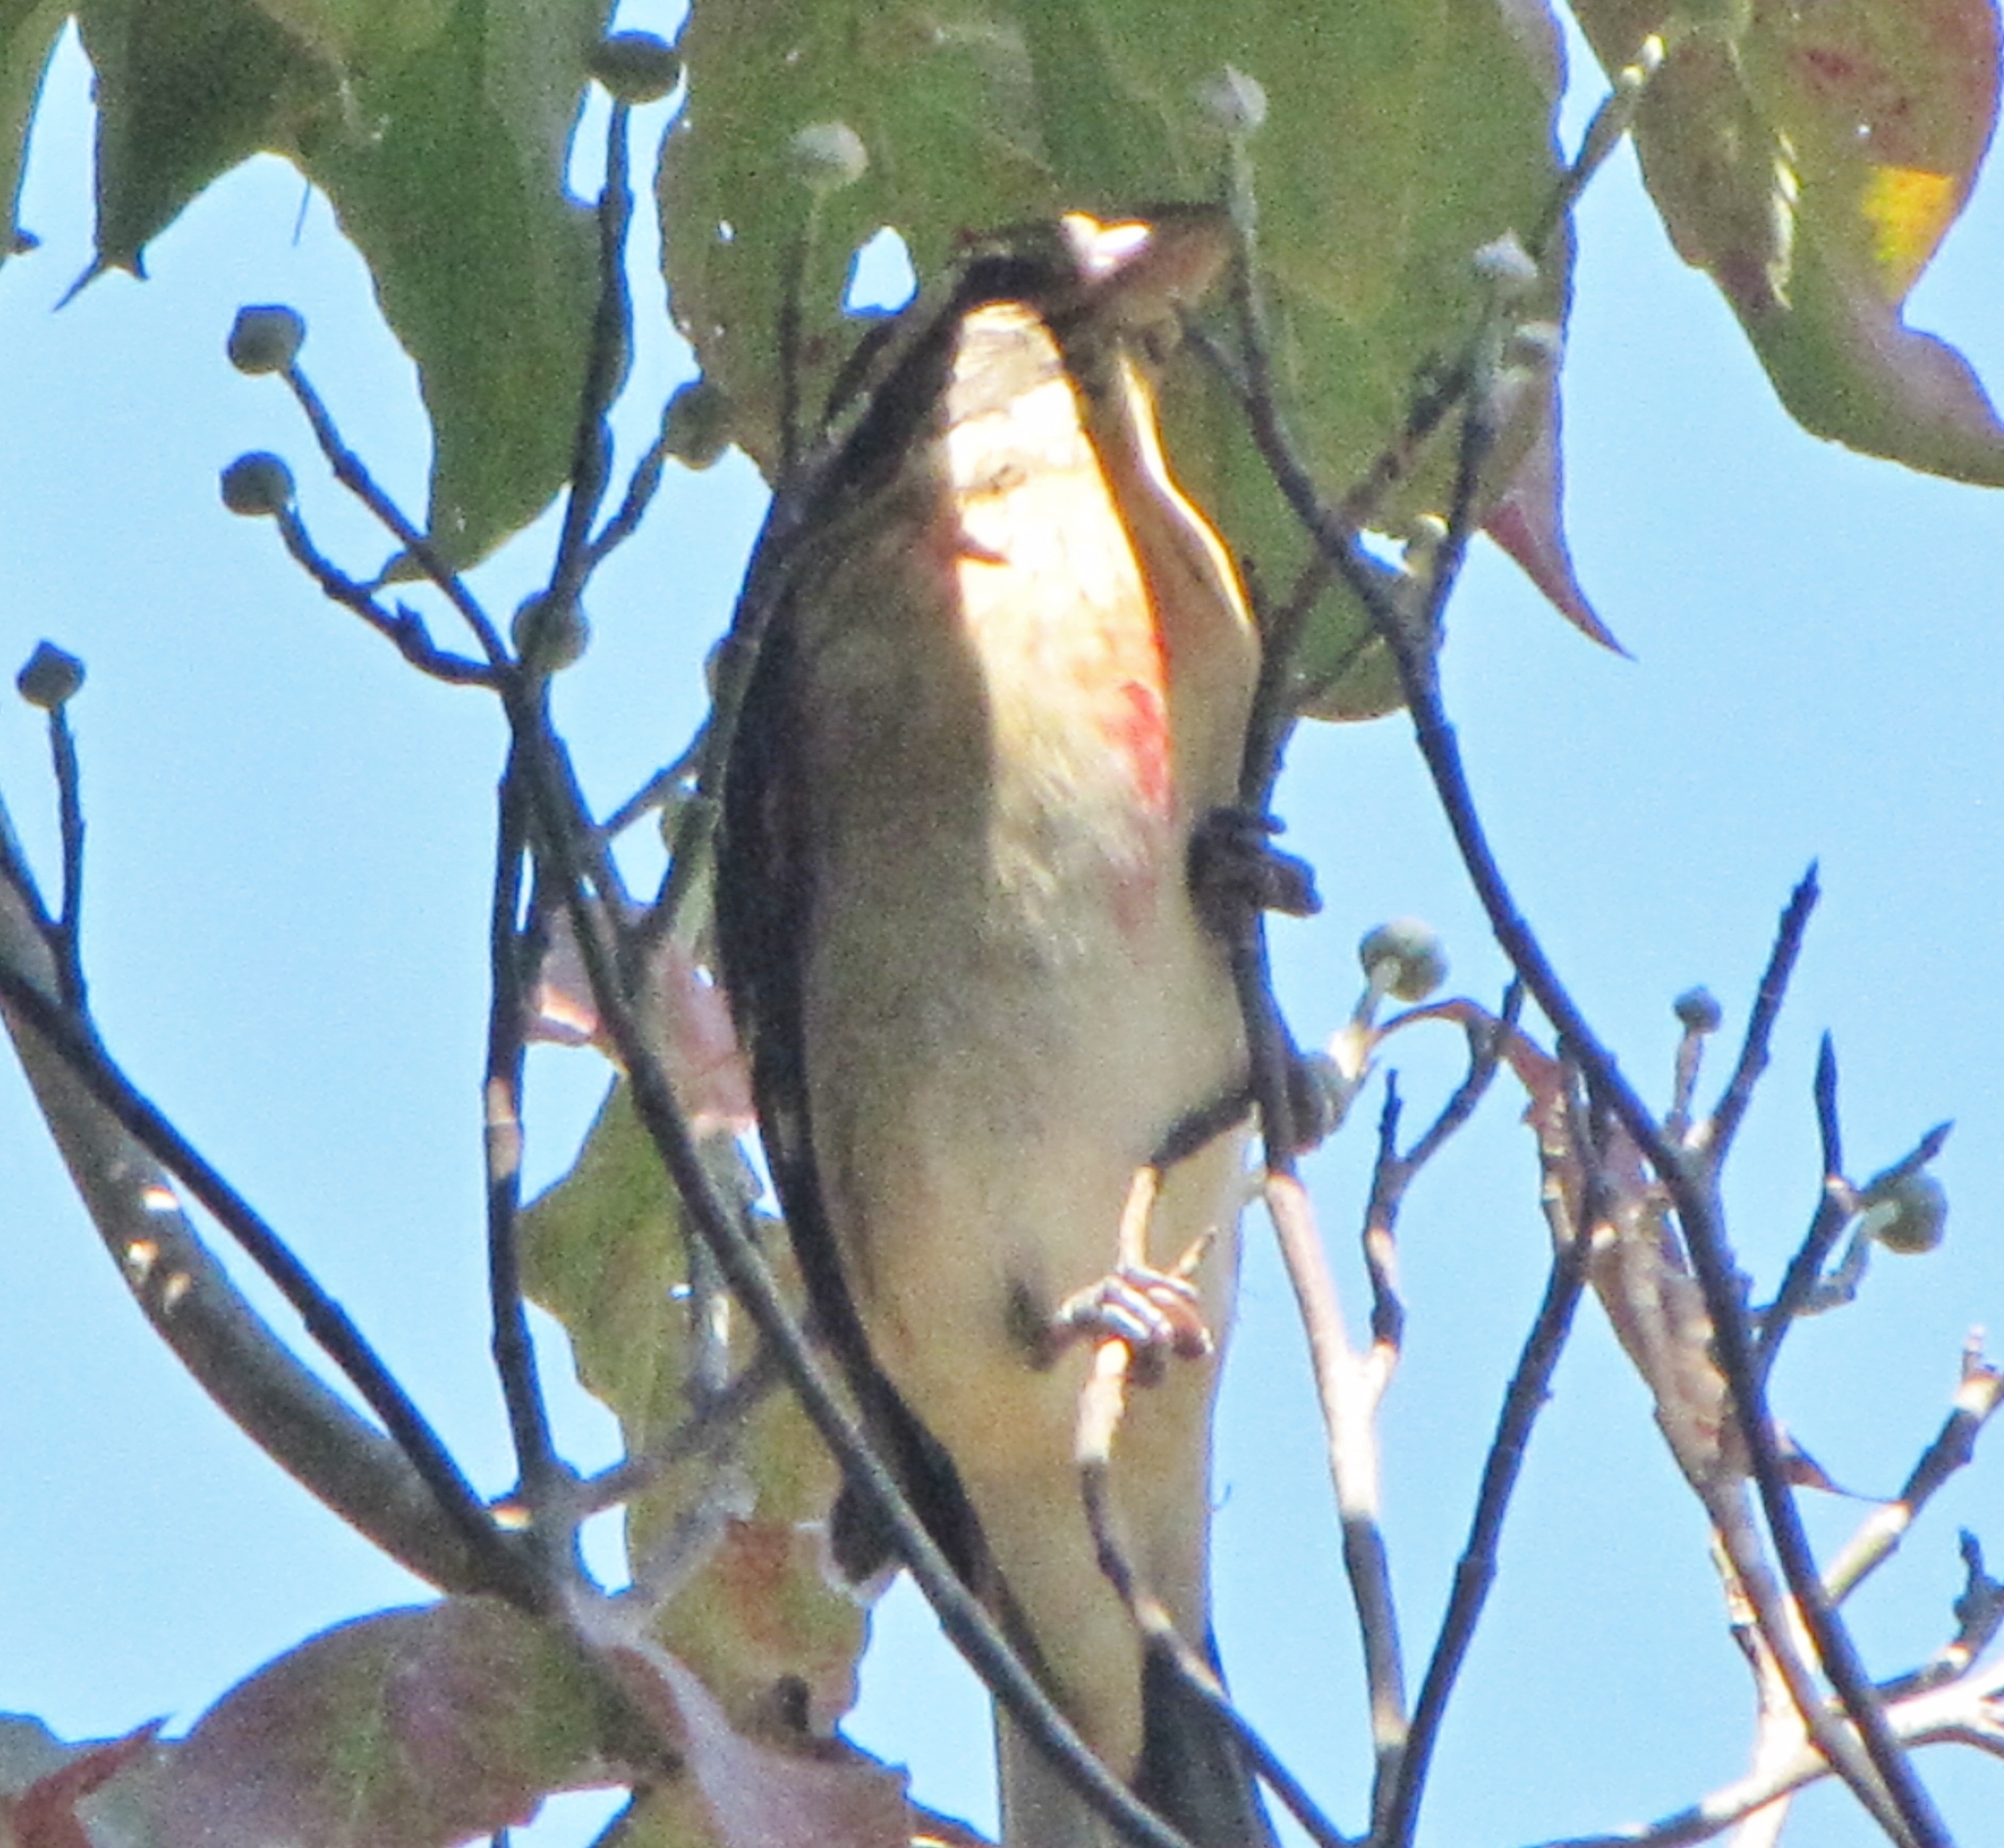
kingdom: Animalia
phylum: Chordata
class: Aves
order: Passeriformes
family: Cardinalidae
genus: Pheucticus
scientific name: Pheucticus ludovicianus
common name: Rose-breasted grosbeak
